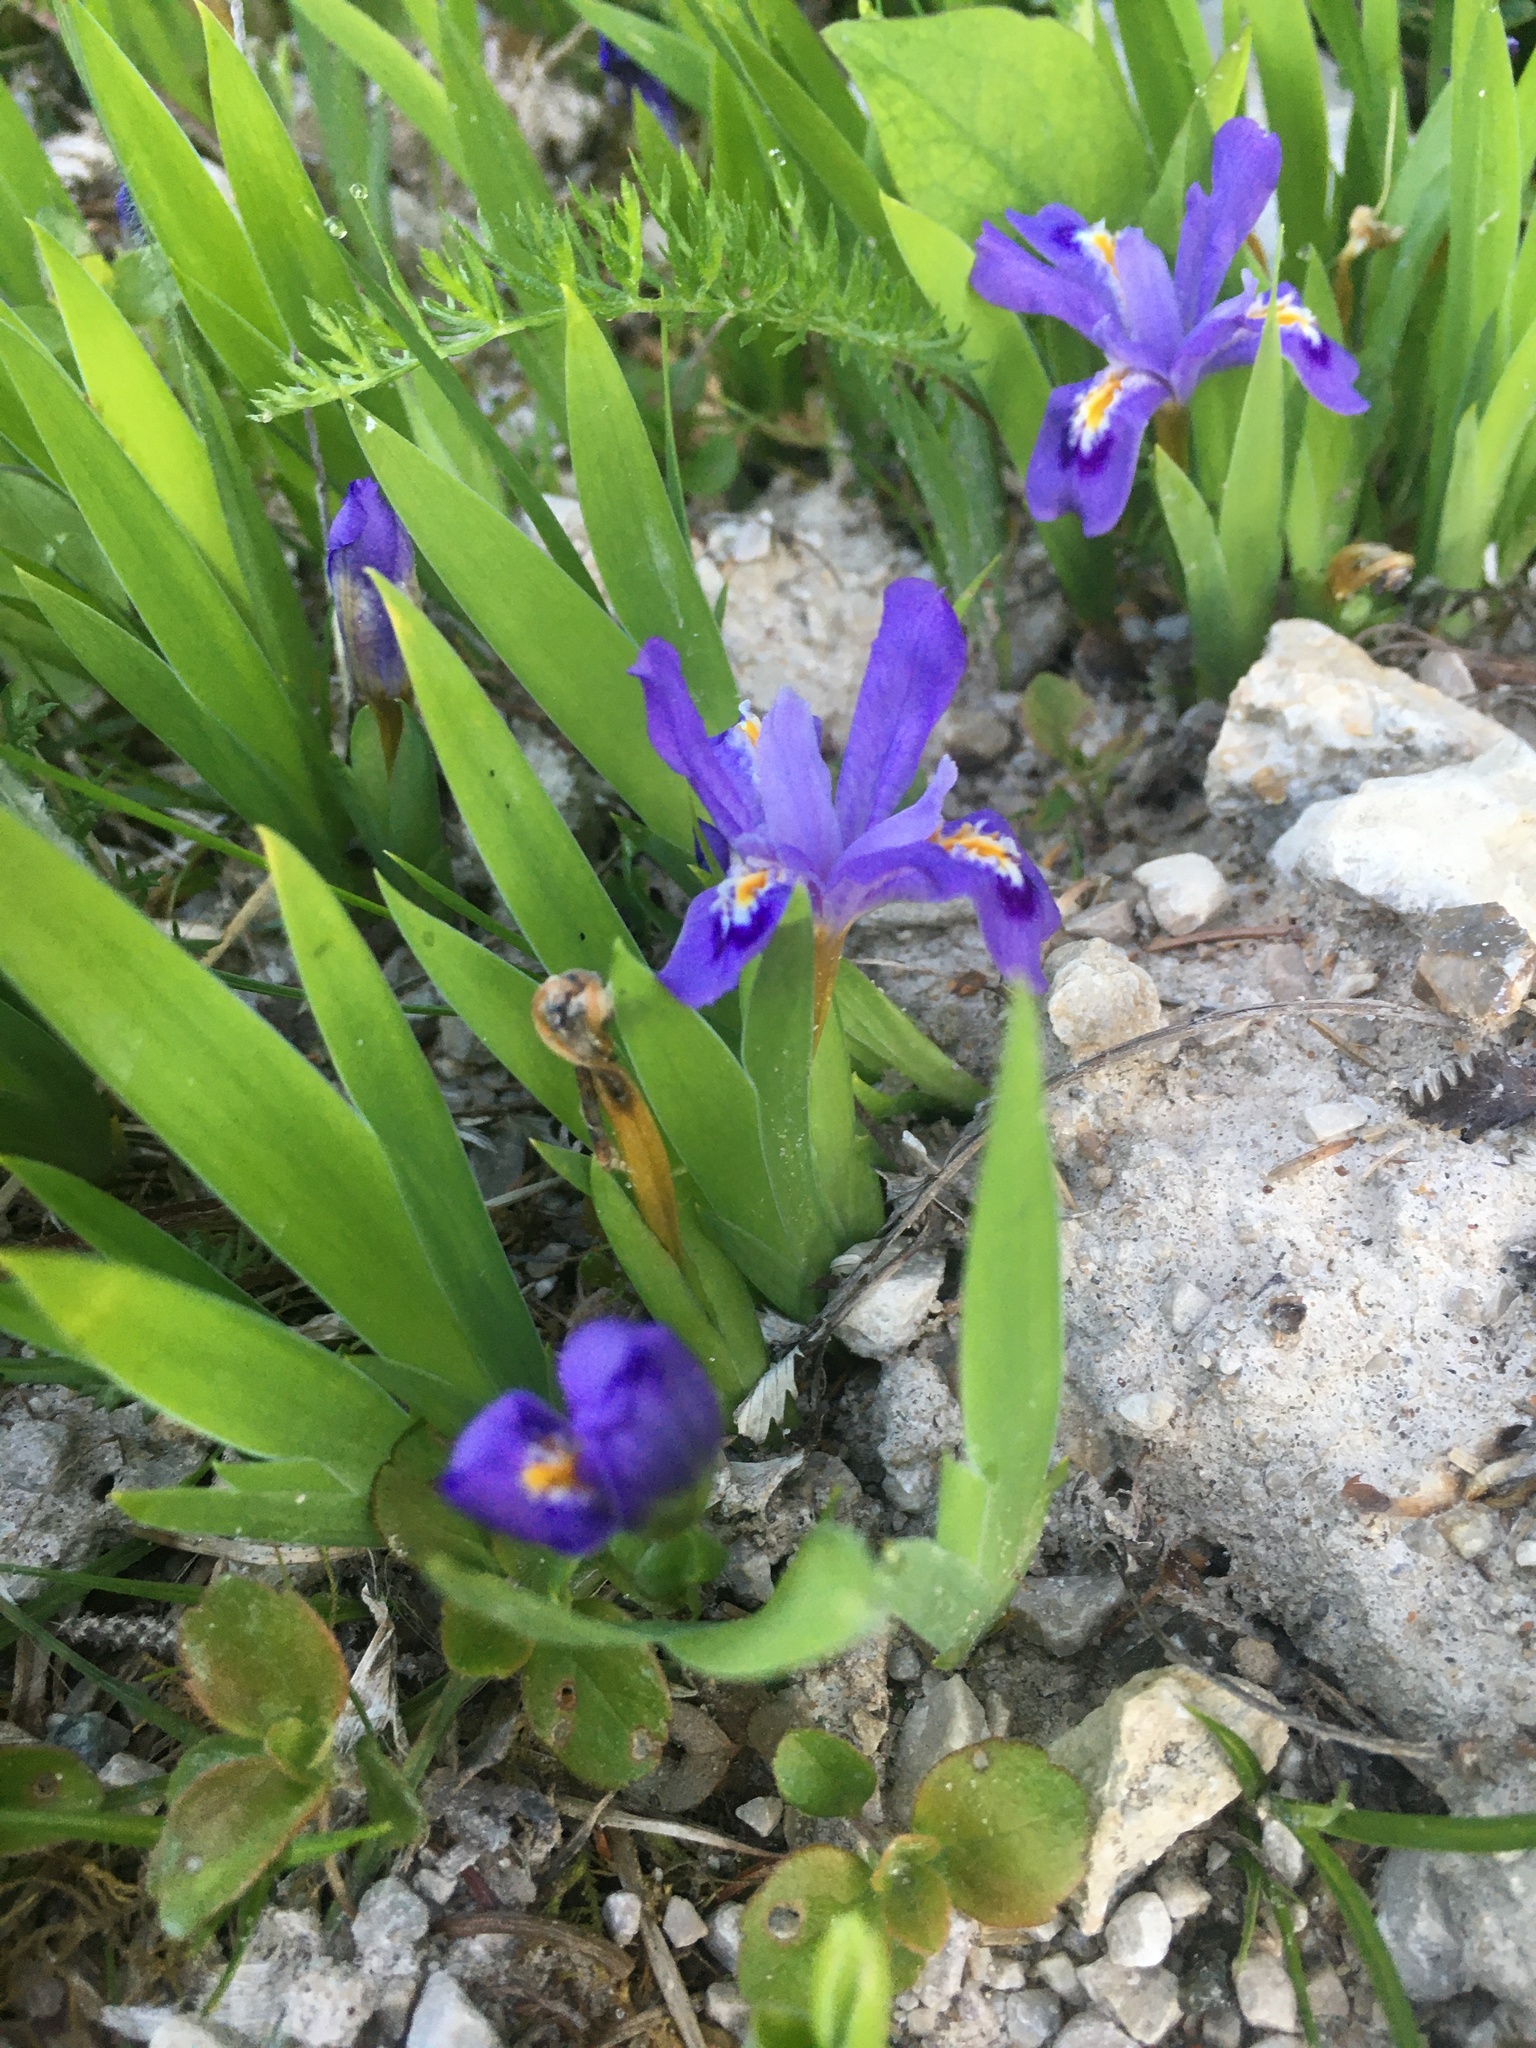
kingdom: Plantae
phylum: Tracheophyta
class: Liliopsida
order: Asparagales
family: Iridaceae
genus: Iris
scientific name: Iris lacustris
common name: Dwarf lake iris
